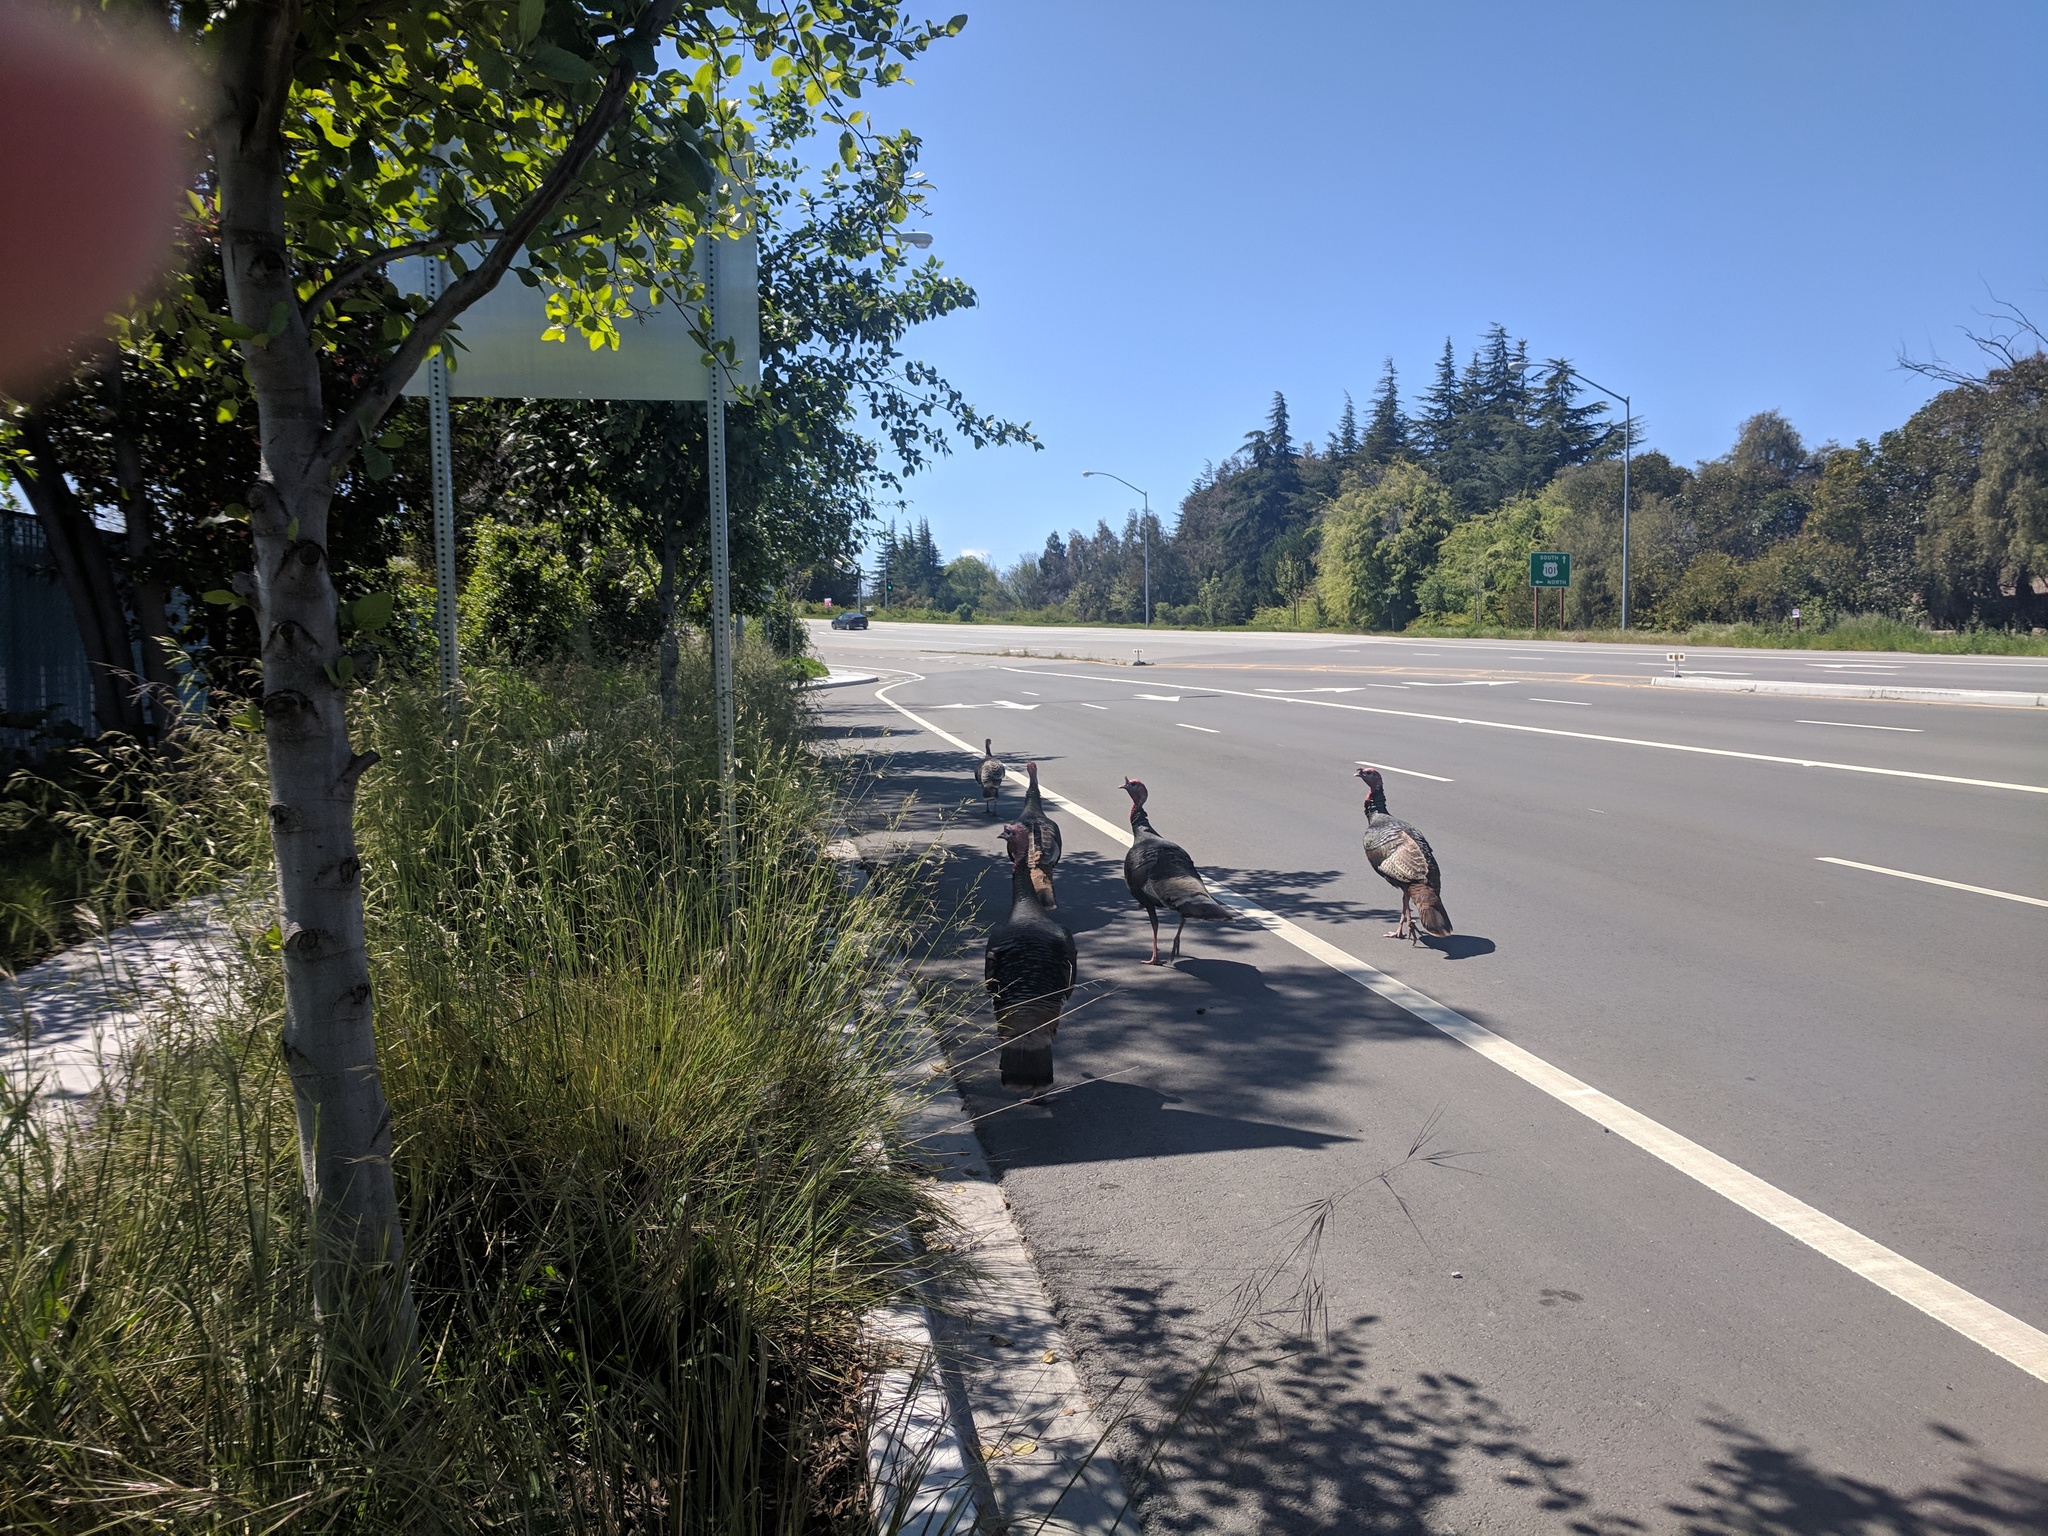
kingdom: Animalia
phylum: Chordata
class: Aves
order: Galliformes
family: Phasianidae
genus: Meleagris
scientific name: Meleagris gallopavo
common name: Wild turkey
